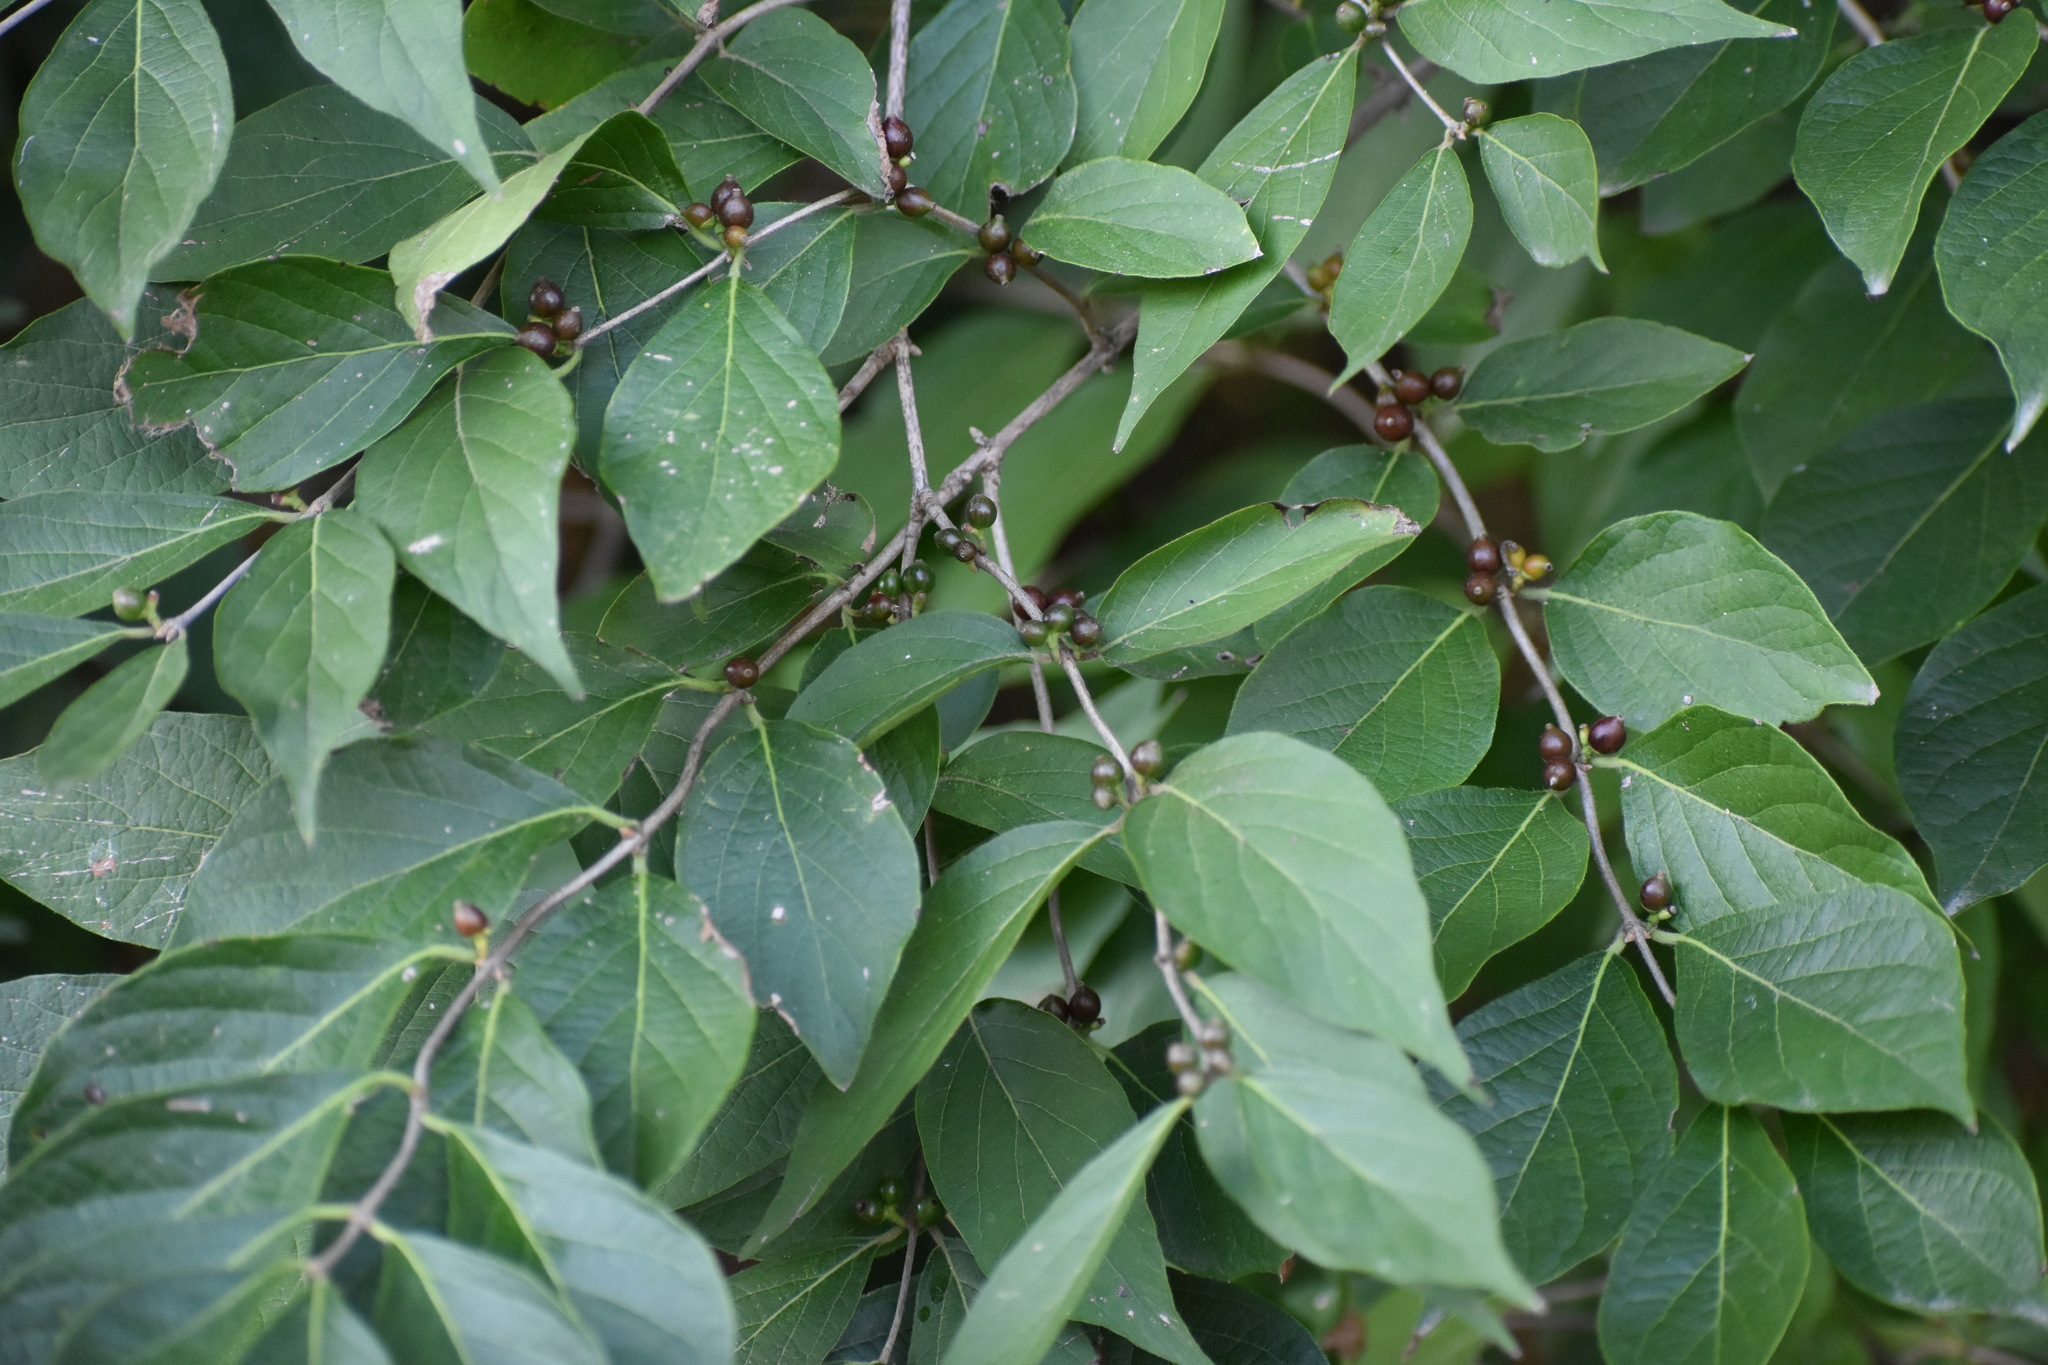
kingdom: Plantae
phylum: Tracheophyta
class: Magnoliopsida
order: Dipsacales
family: Caprifoliaceae
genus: Lonicera
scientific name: Lonicera maackii
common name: Amur honeysuckle
